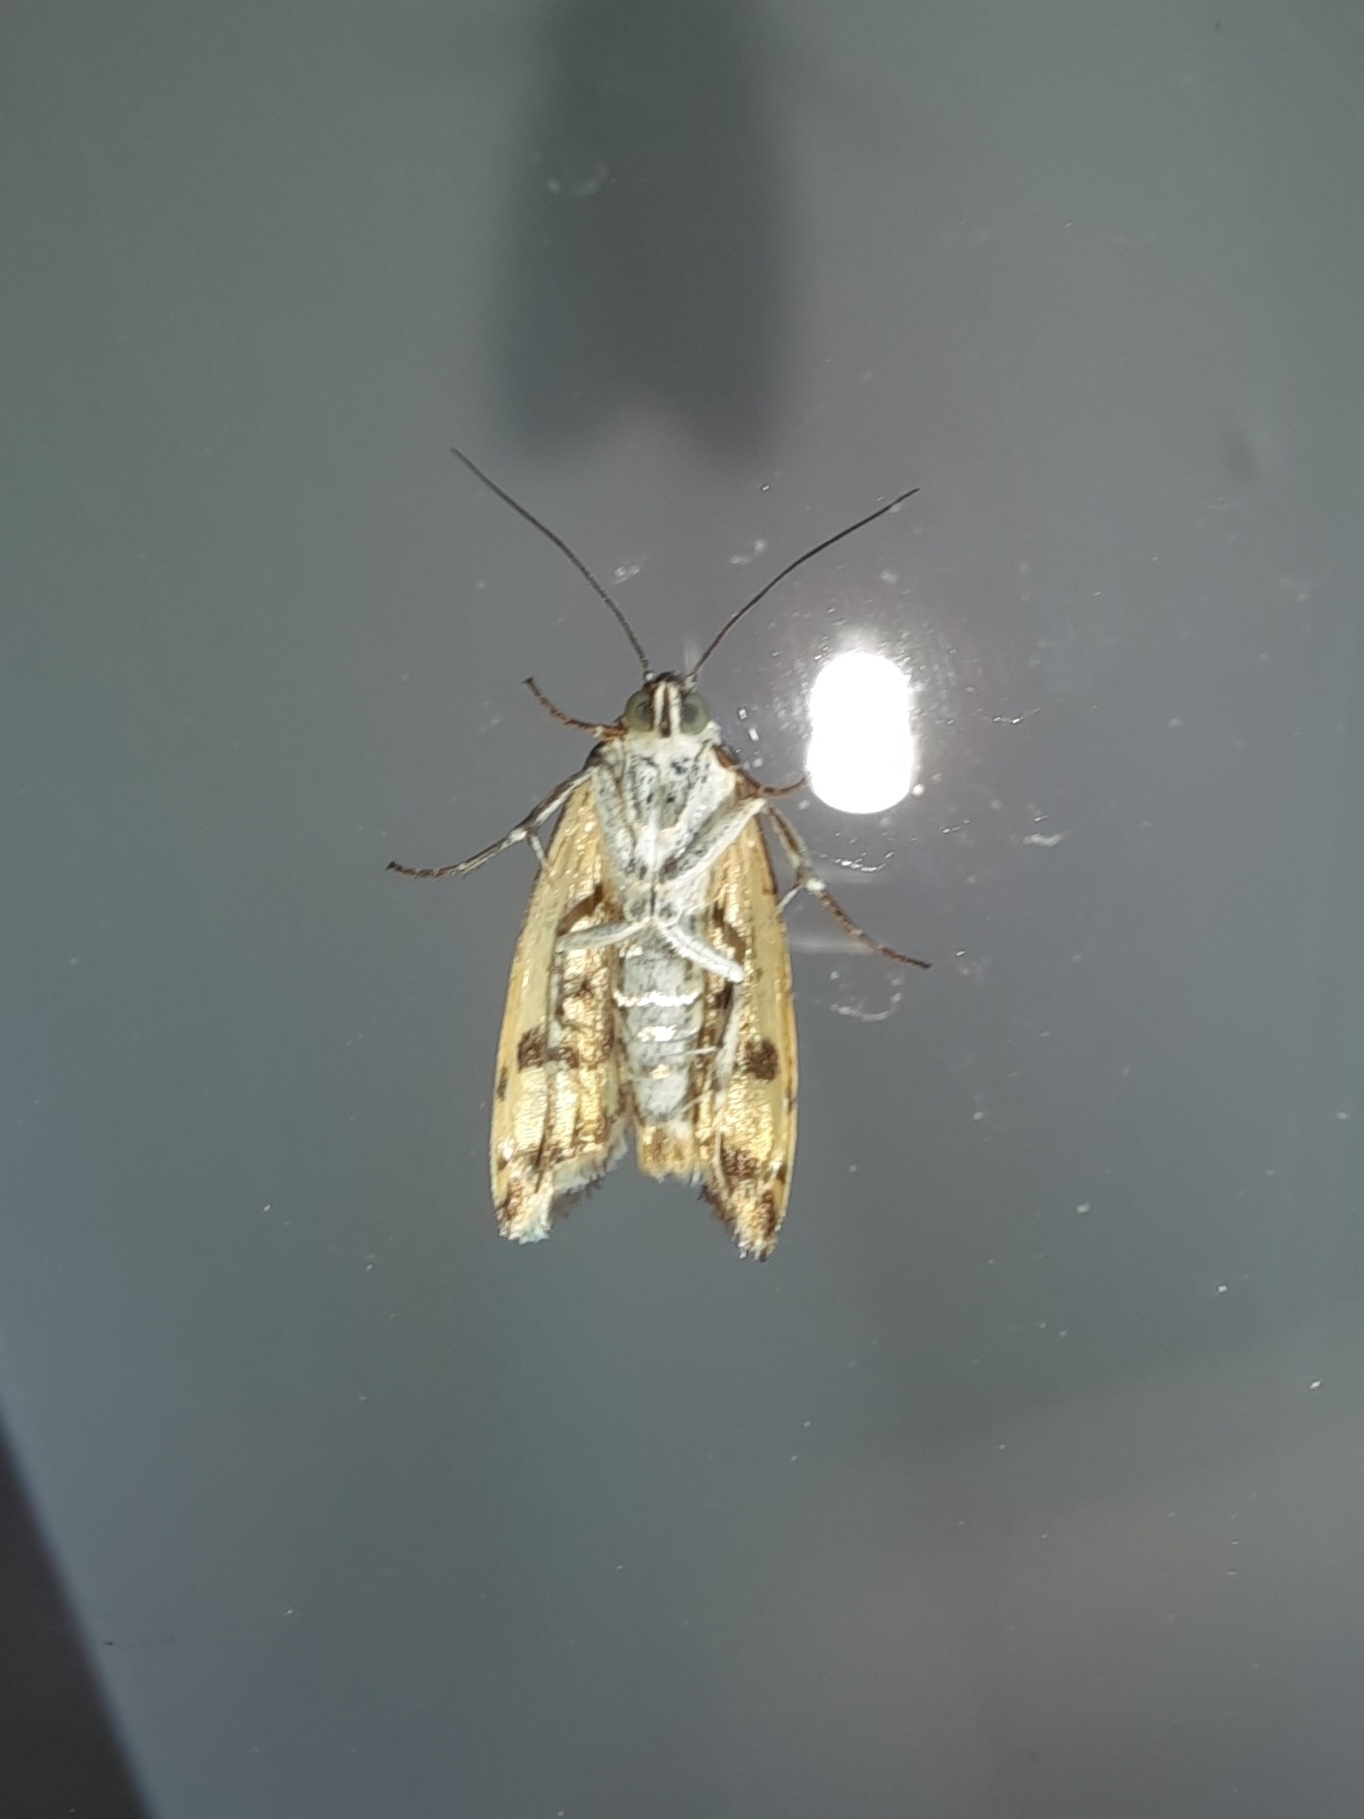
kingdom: Animalia
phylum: Arthropoda
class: Insecta
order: Lepidoptera
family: Noctuidae
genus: Acontia
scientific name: Acontia trabealis
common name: Spotted sulphur
